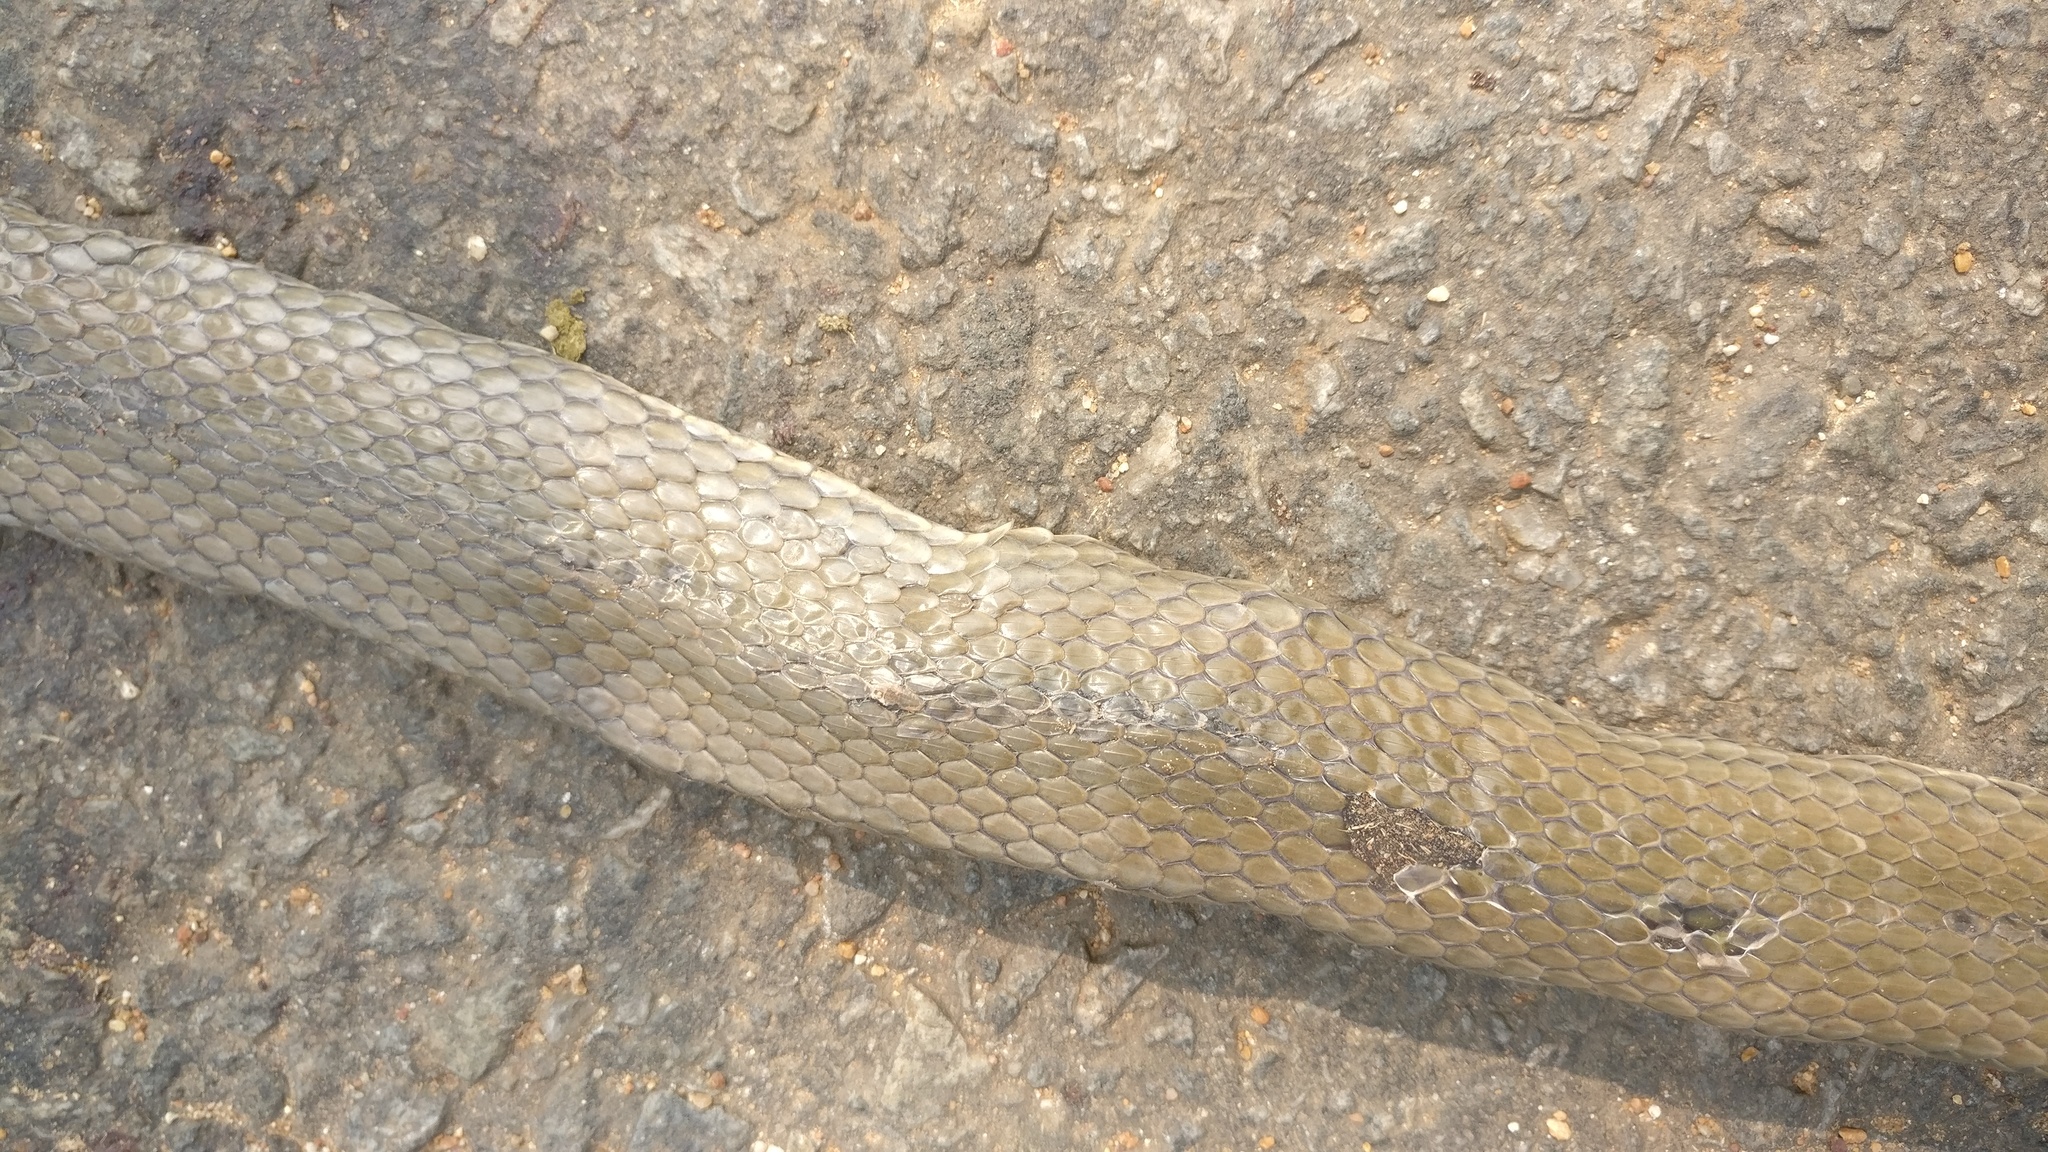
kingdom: Animalia
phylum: Chordata
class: Squamata
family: Colubridae
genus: Atretium
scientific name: Atretium schistosum
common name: Olive keelback wart snake
